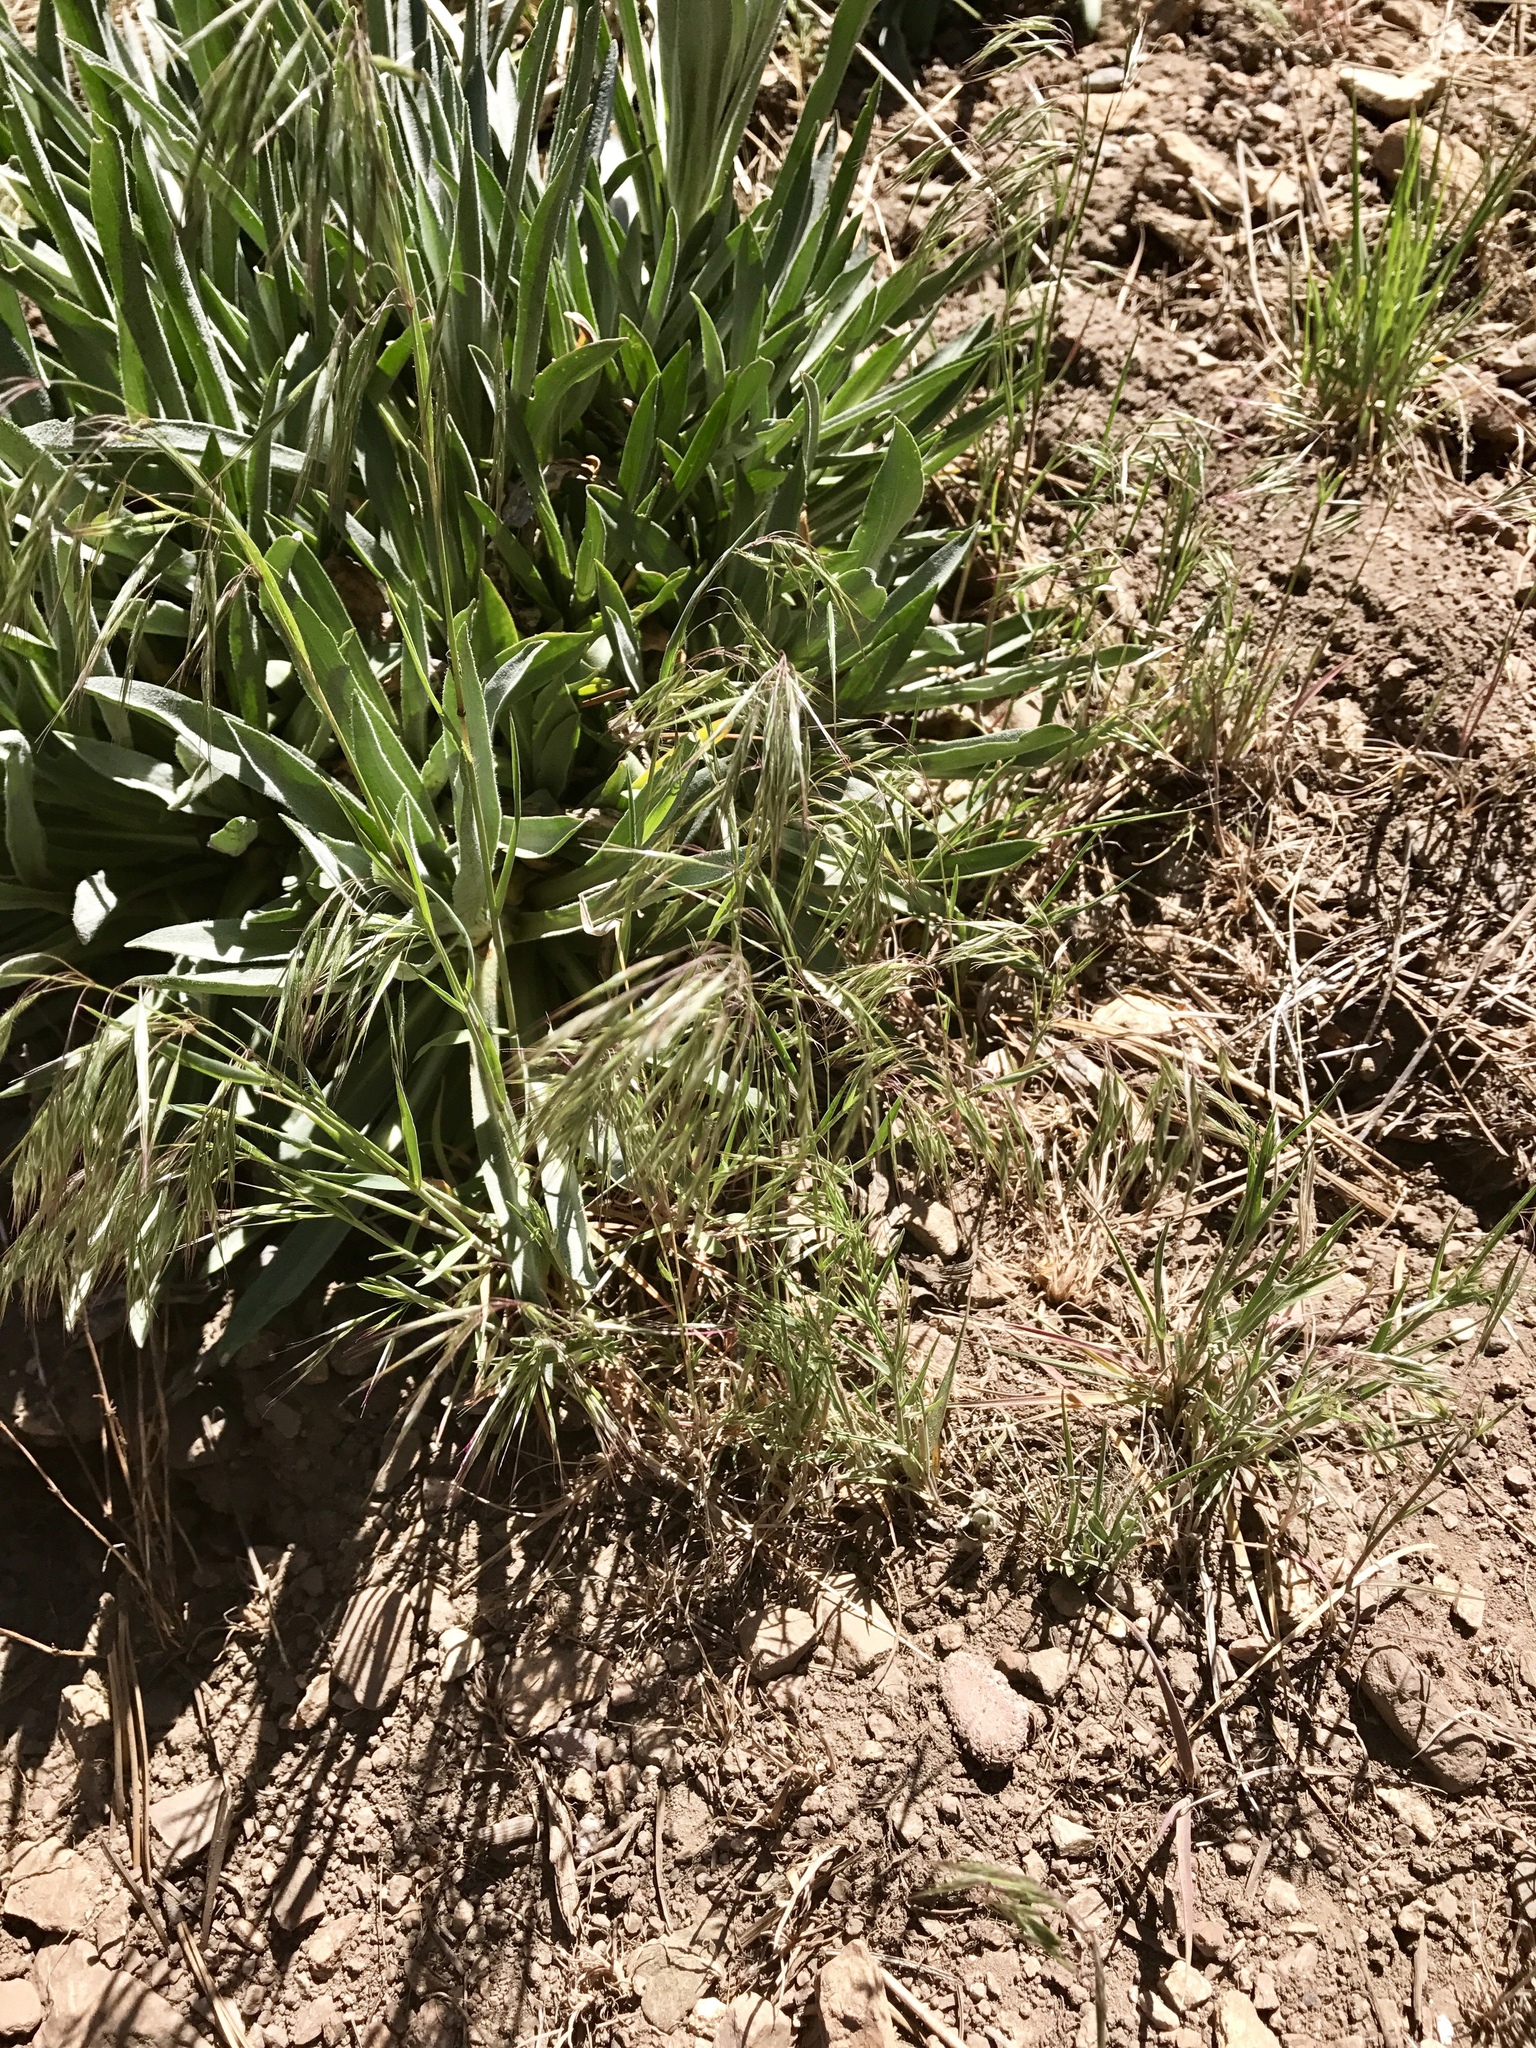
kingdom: Plantae
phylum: Tracheophyta
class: Liliopsida
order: Poales
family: Poaceae
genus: Bromus
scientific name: Bromus ciliatus
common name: Fringe brome
